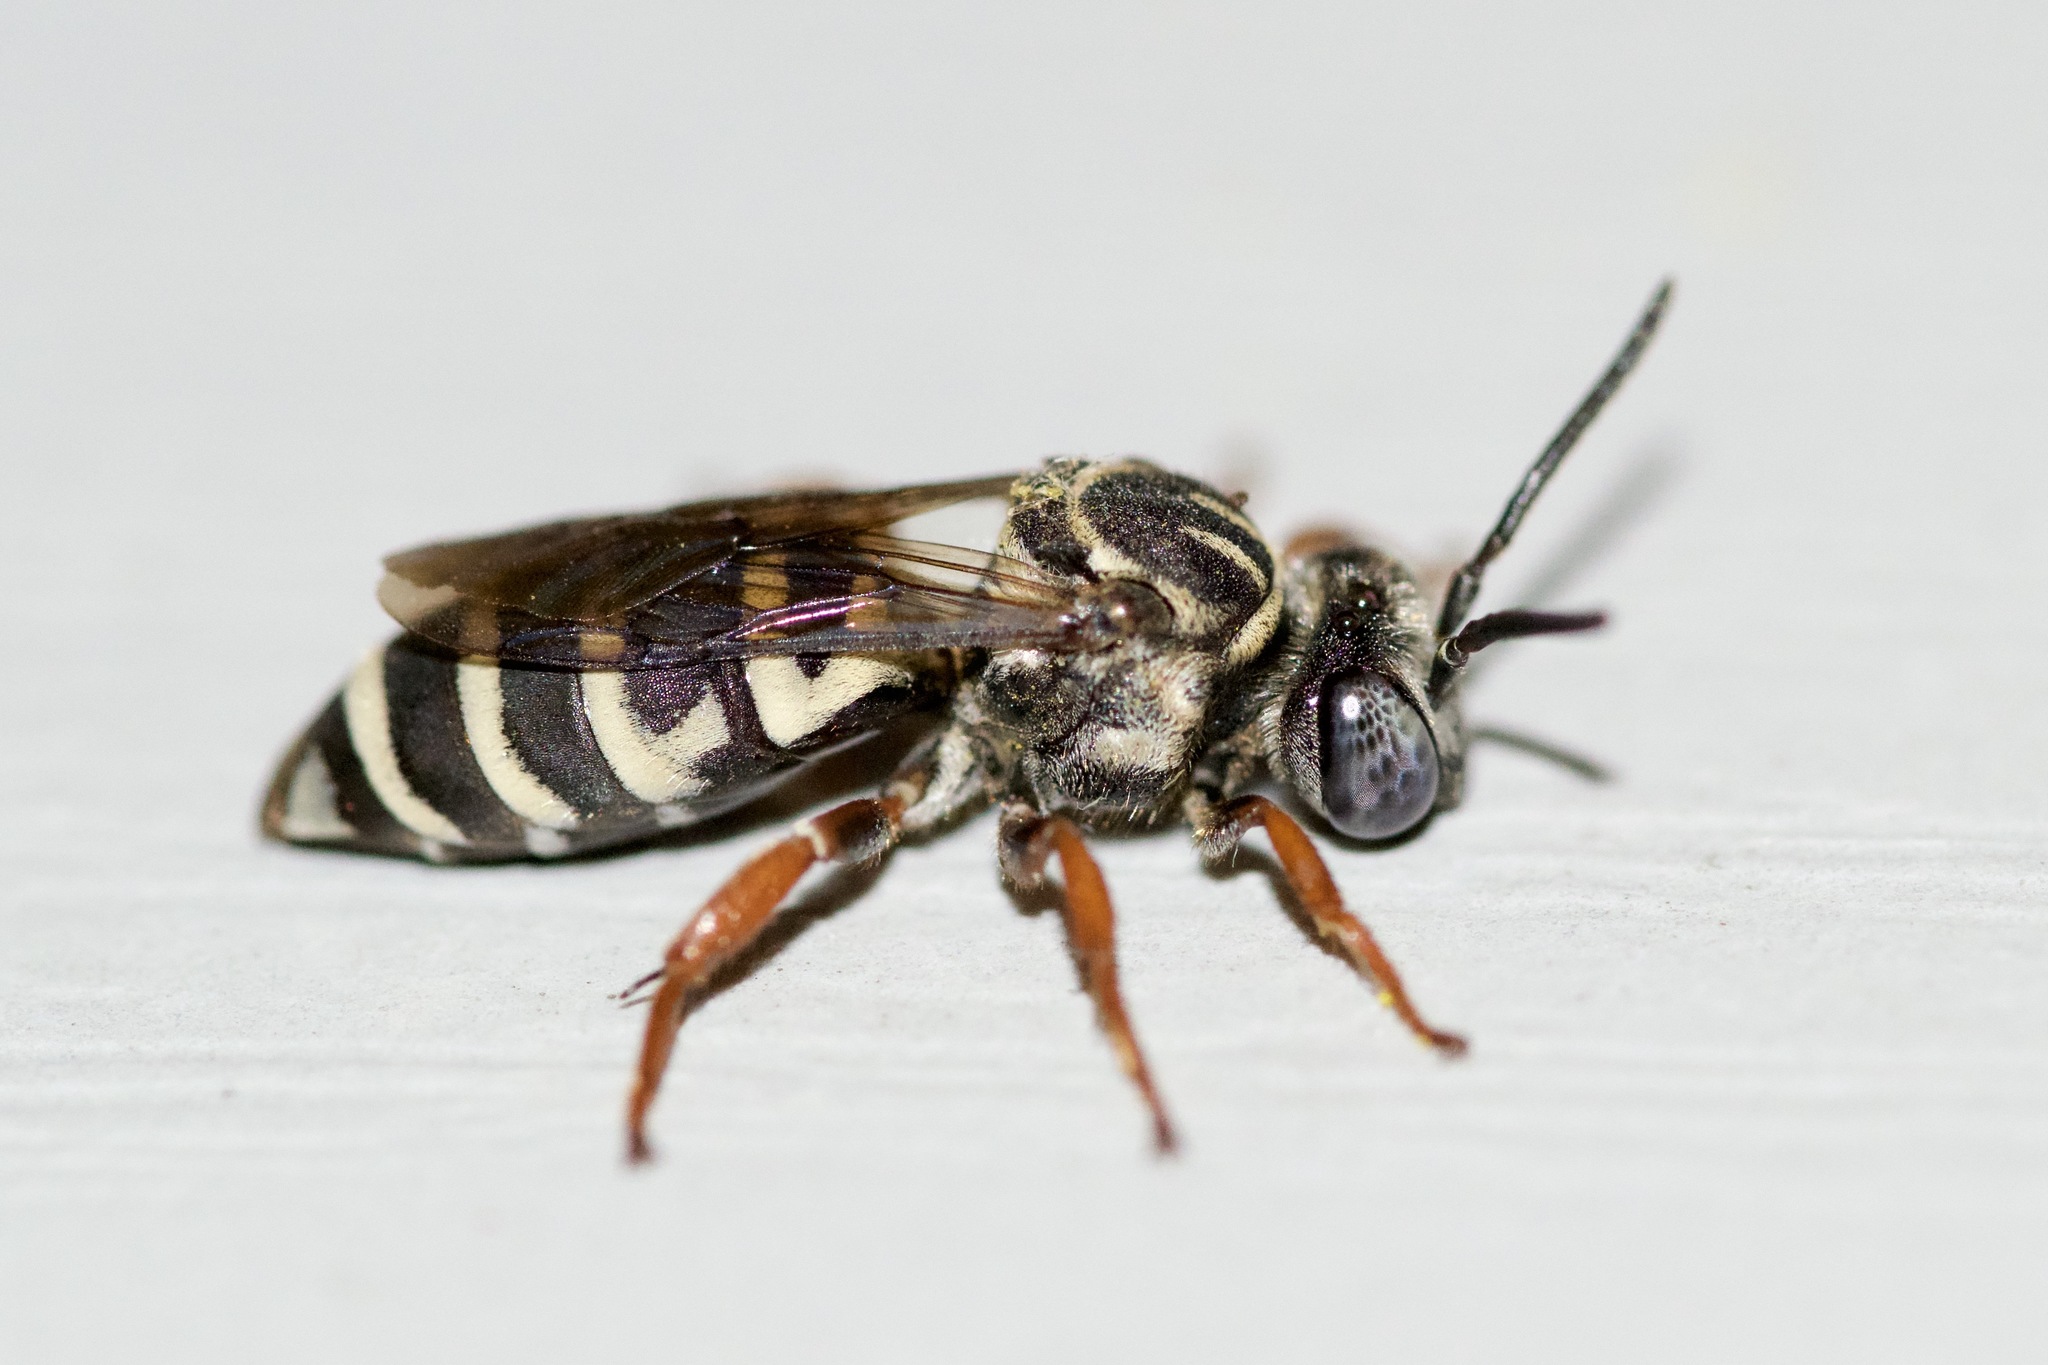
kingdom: Animalia
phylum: Arthropoda
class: Insecta
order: Hymenoptera
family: Apidae
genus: Triepeolus
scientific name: Triepeolus pectoralis
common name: Goldenrod longhorn-cuckoo bee
